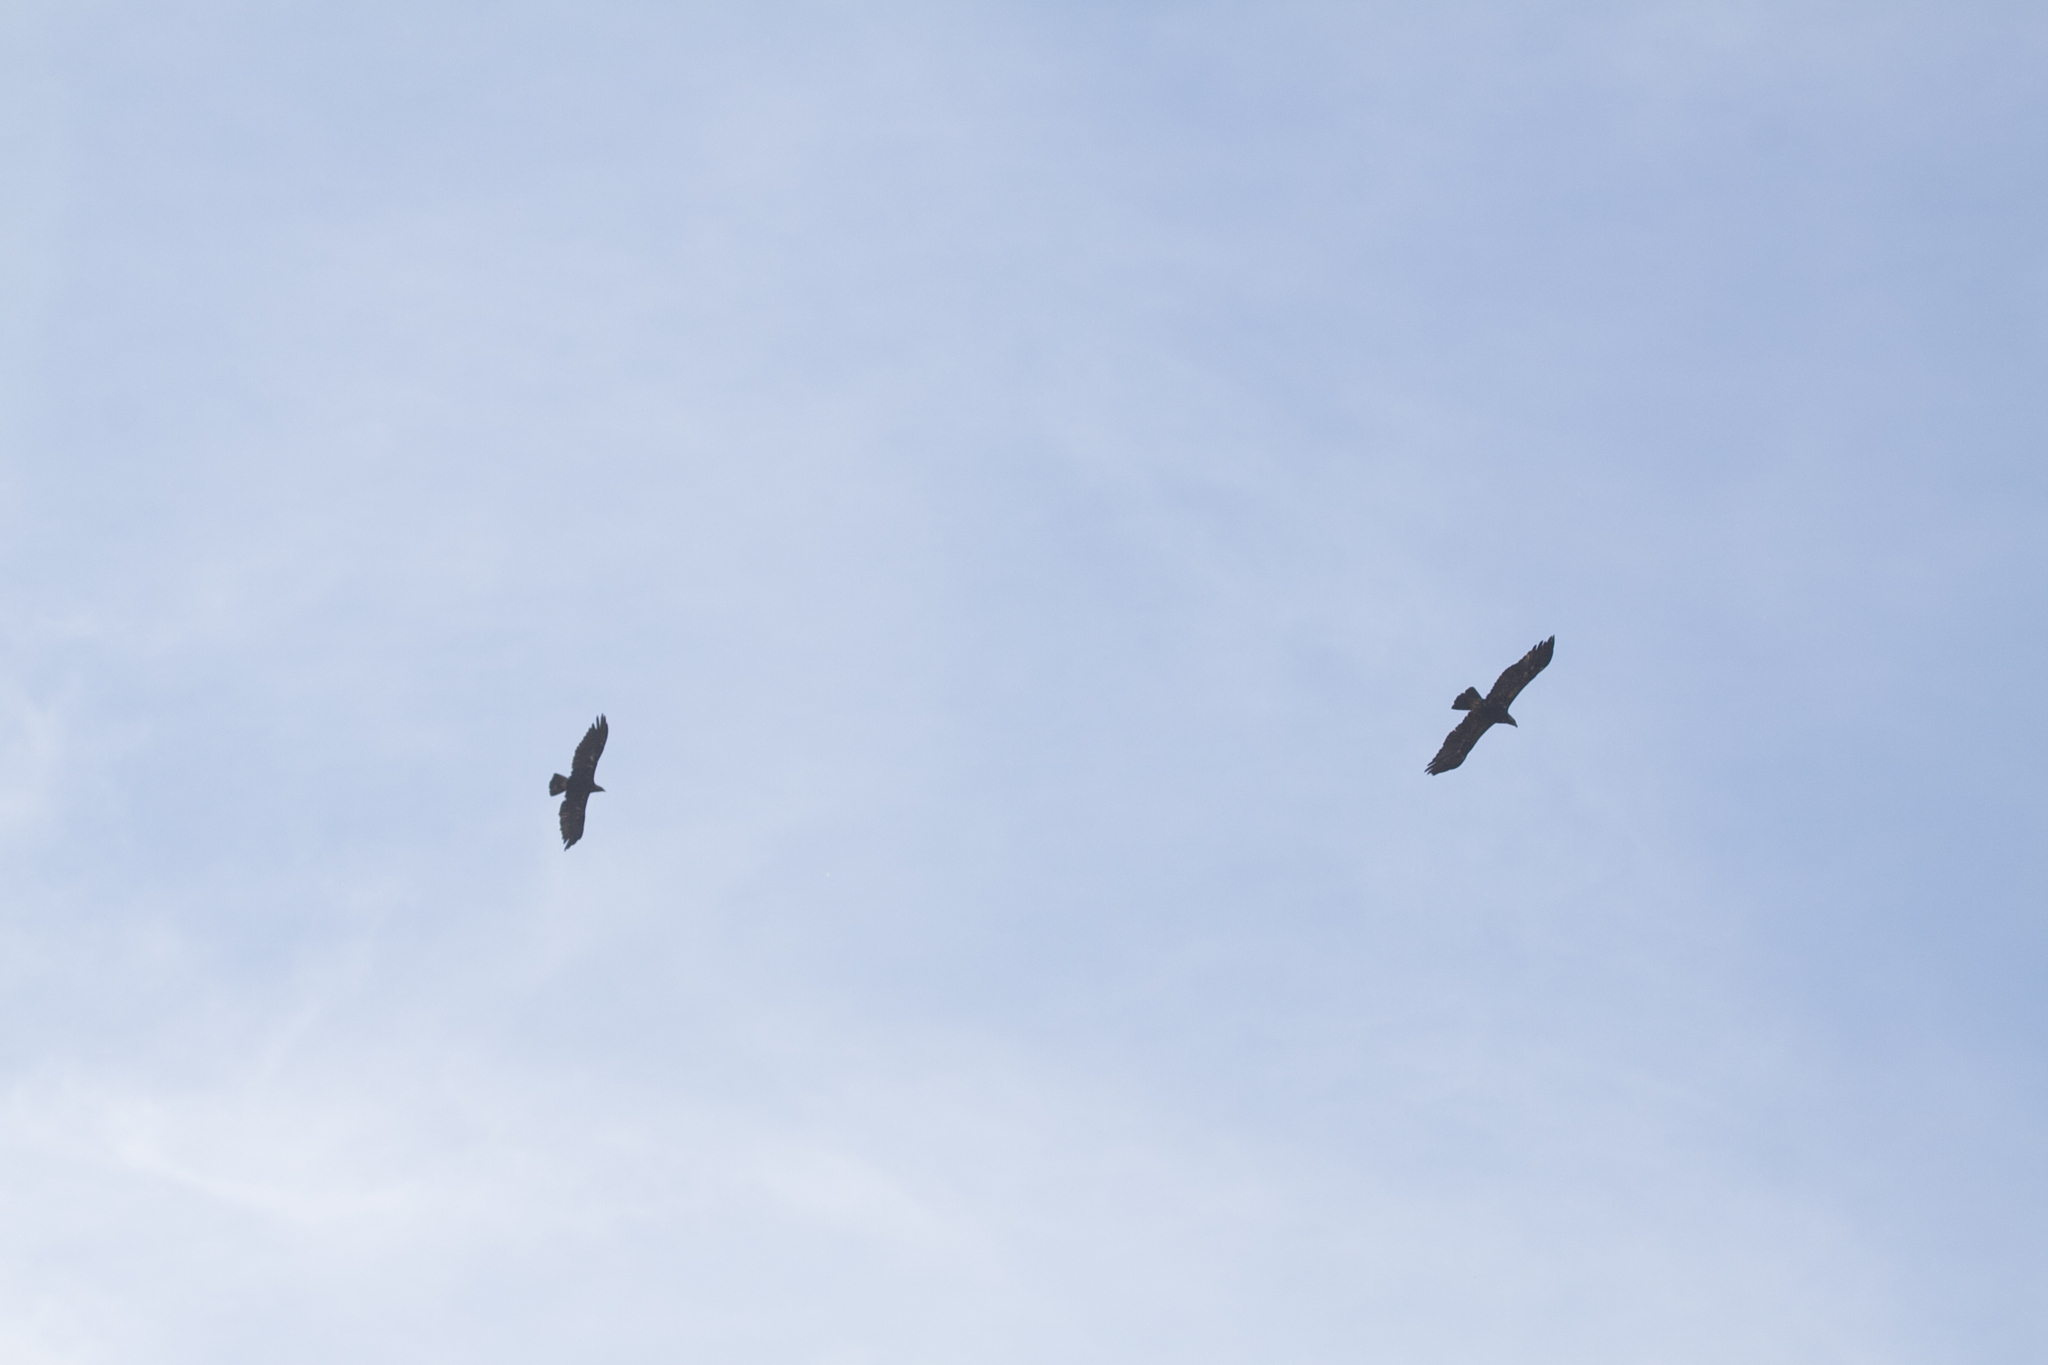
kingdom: Animalia
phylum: Chordata
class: Aves
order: Accipitriformes
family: Accipitridae
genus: Aquila
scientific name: Aquila heliaca
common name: Eastern imperial eagle
